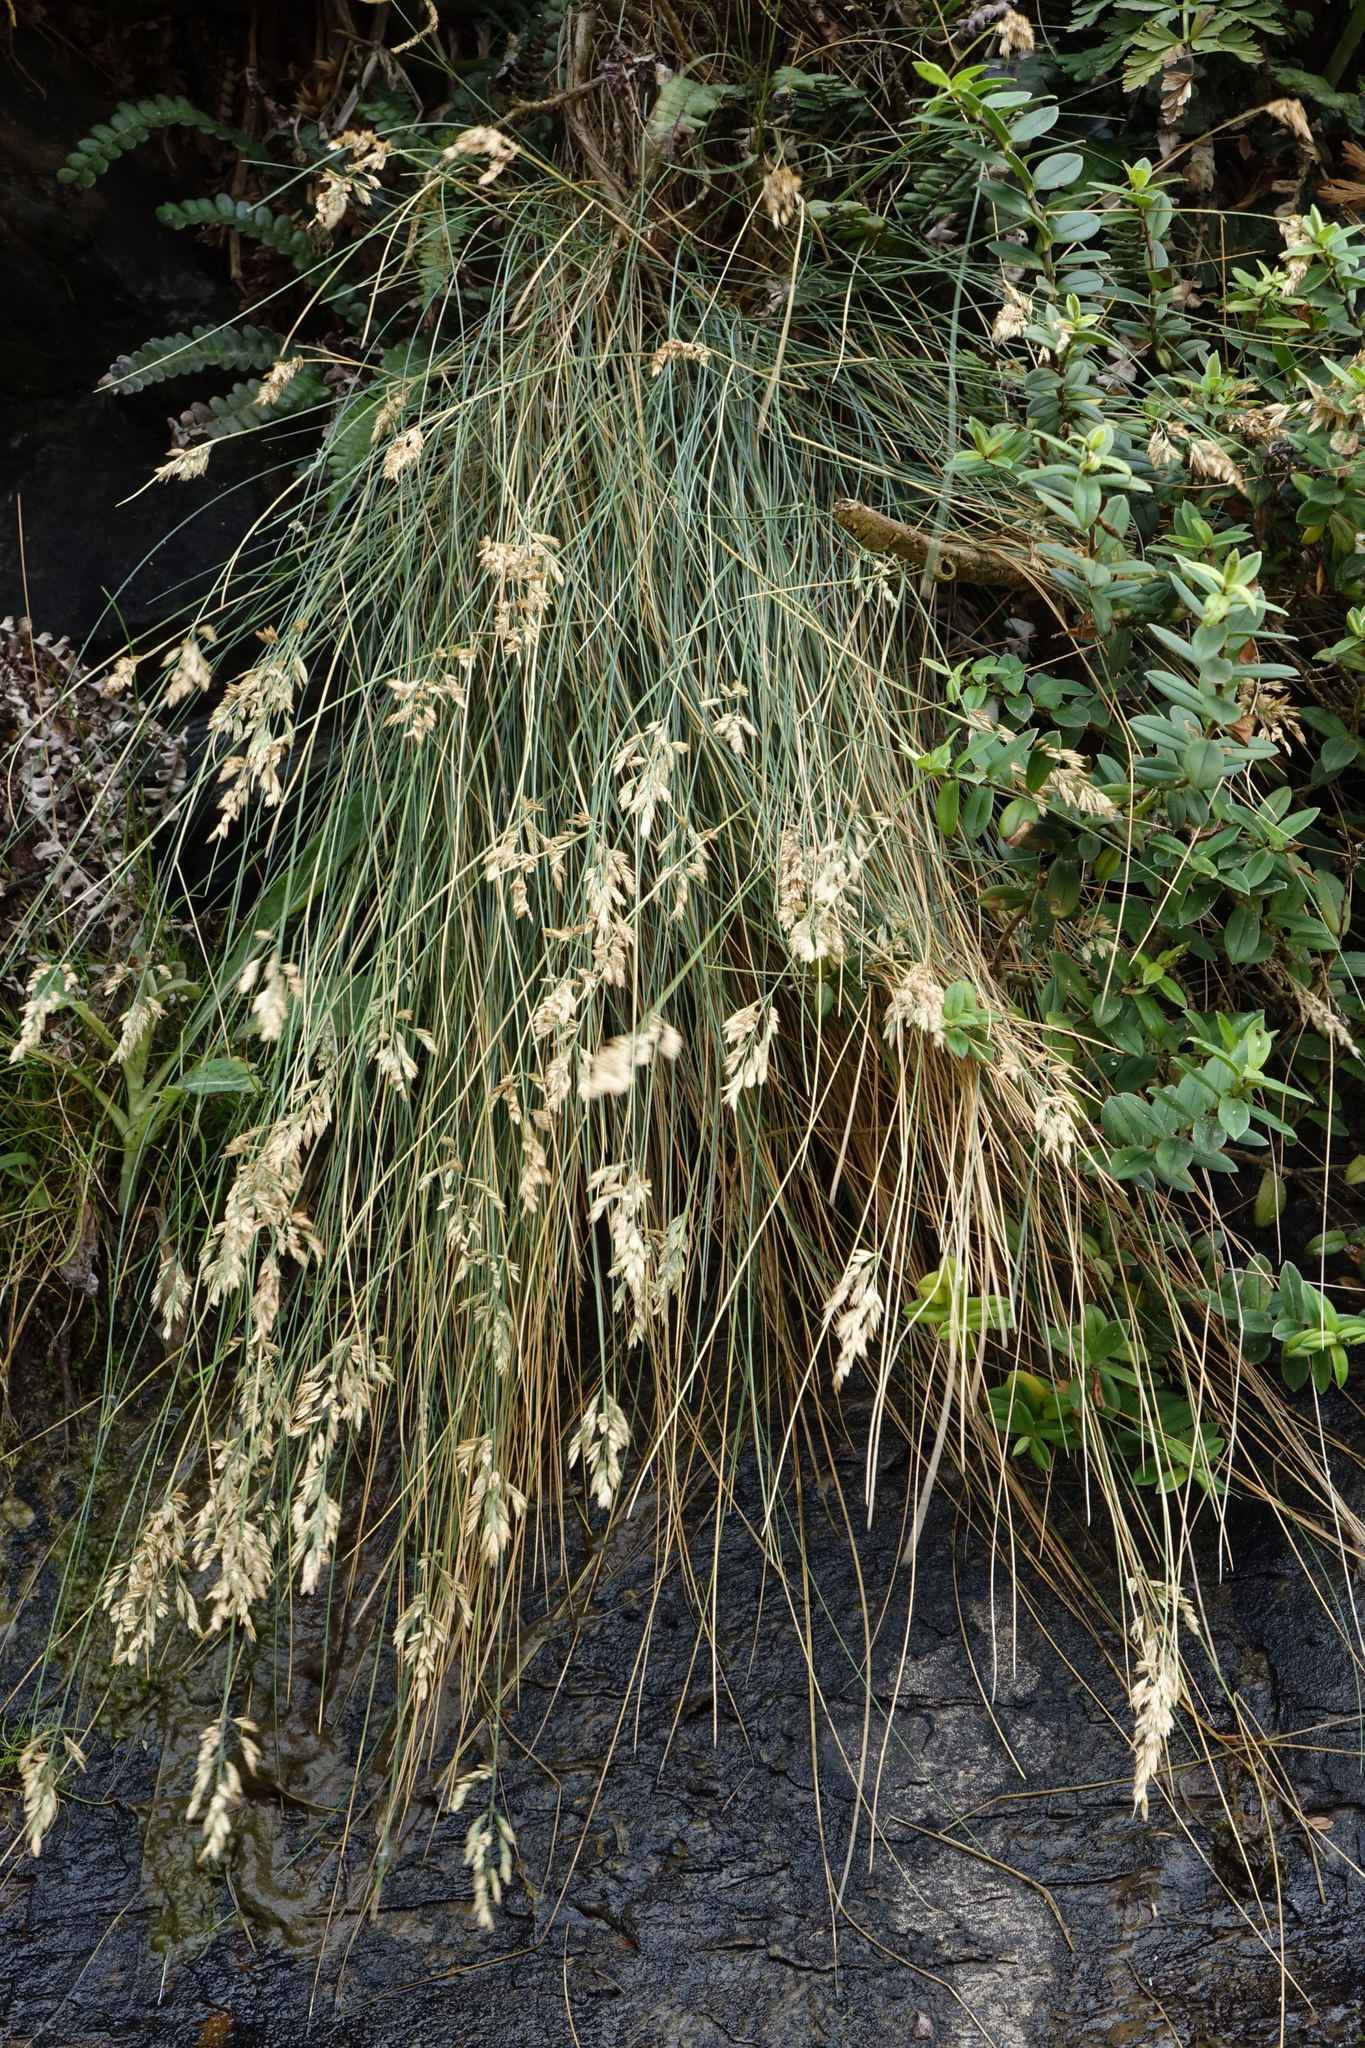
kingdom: Plantae
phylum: Tracheophyta
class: Liliopsida
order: Poales
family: Poaceae
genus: Poa
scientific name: Poa astonii
